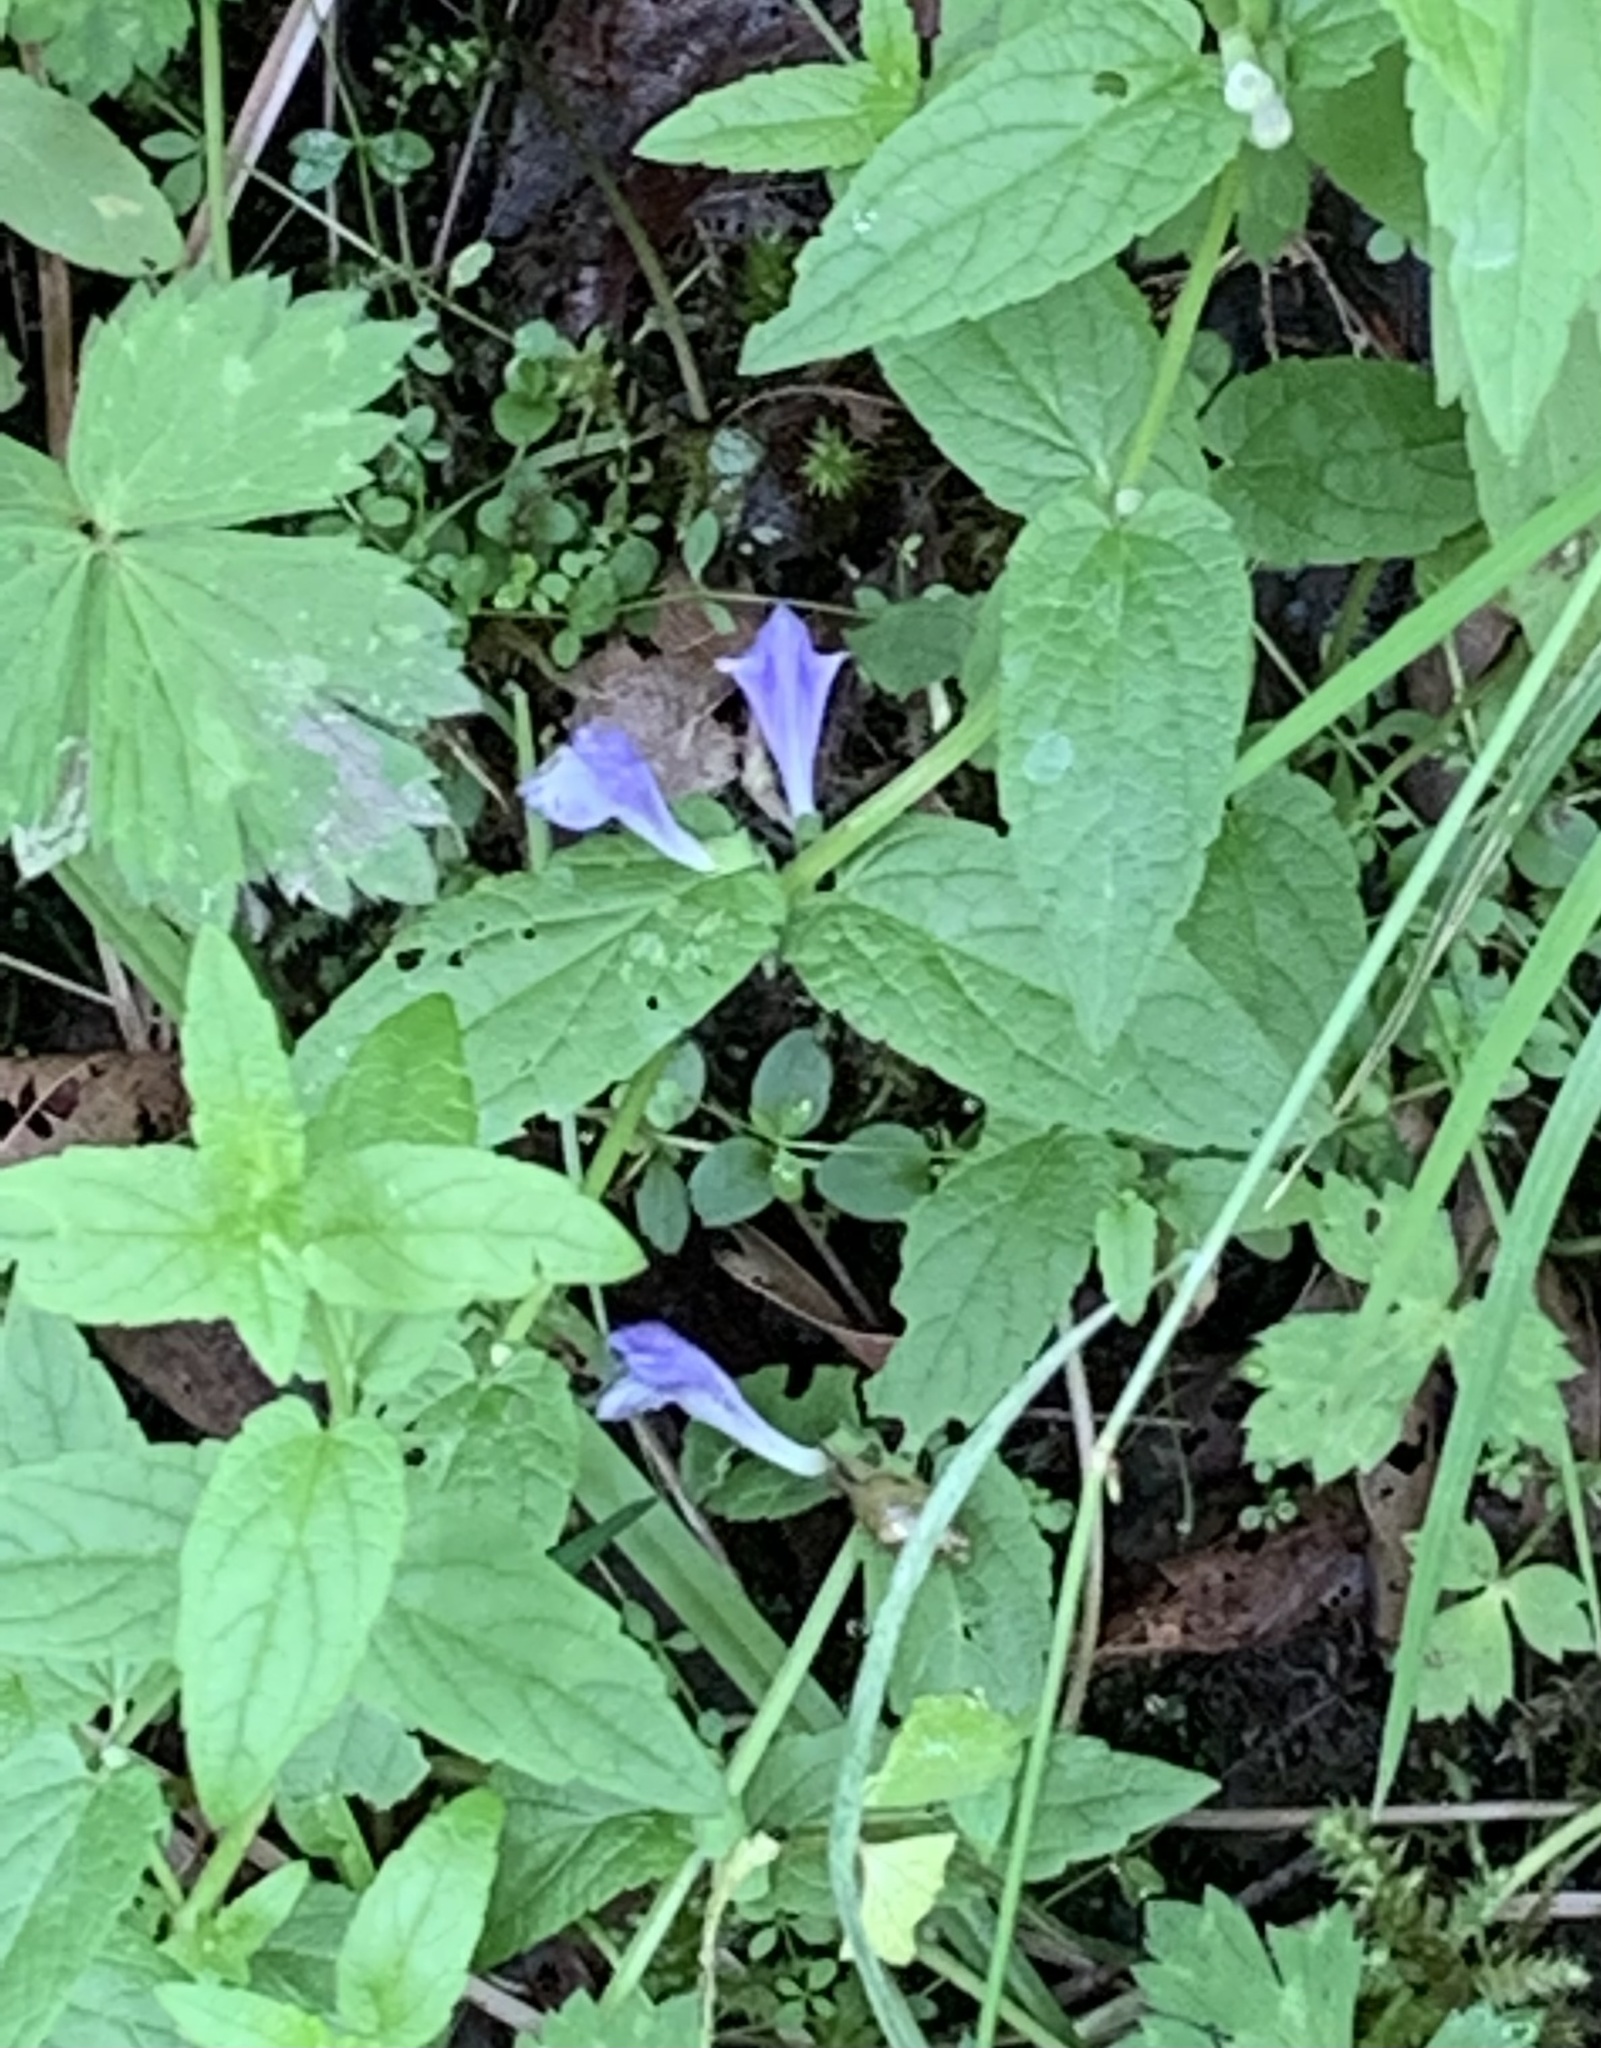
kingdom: Plantae
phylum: Tracheophyta
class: Magnoliopsida
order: Lamiales
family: Lamiaceae
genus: Scutellaria
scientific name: Scutellaria galericulata
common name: Skullcap
